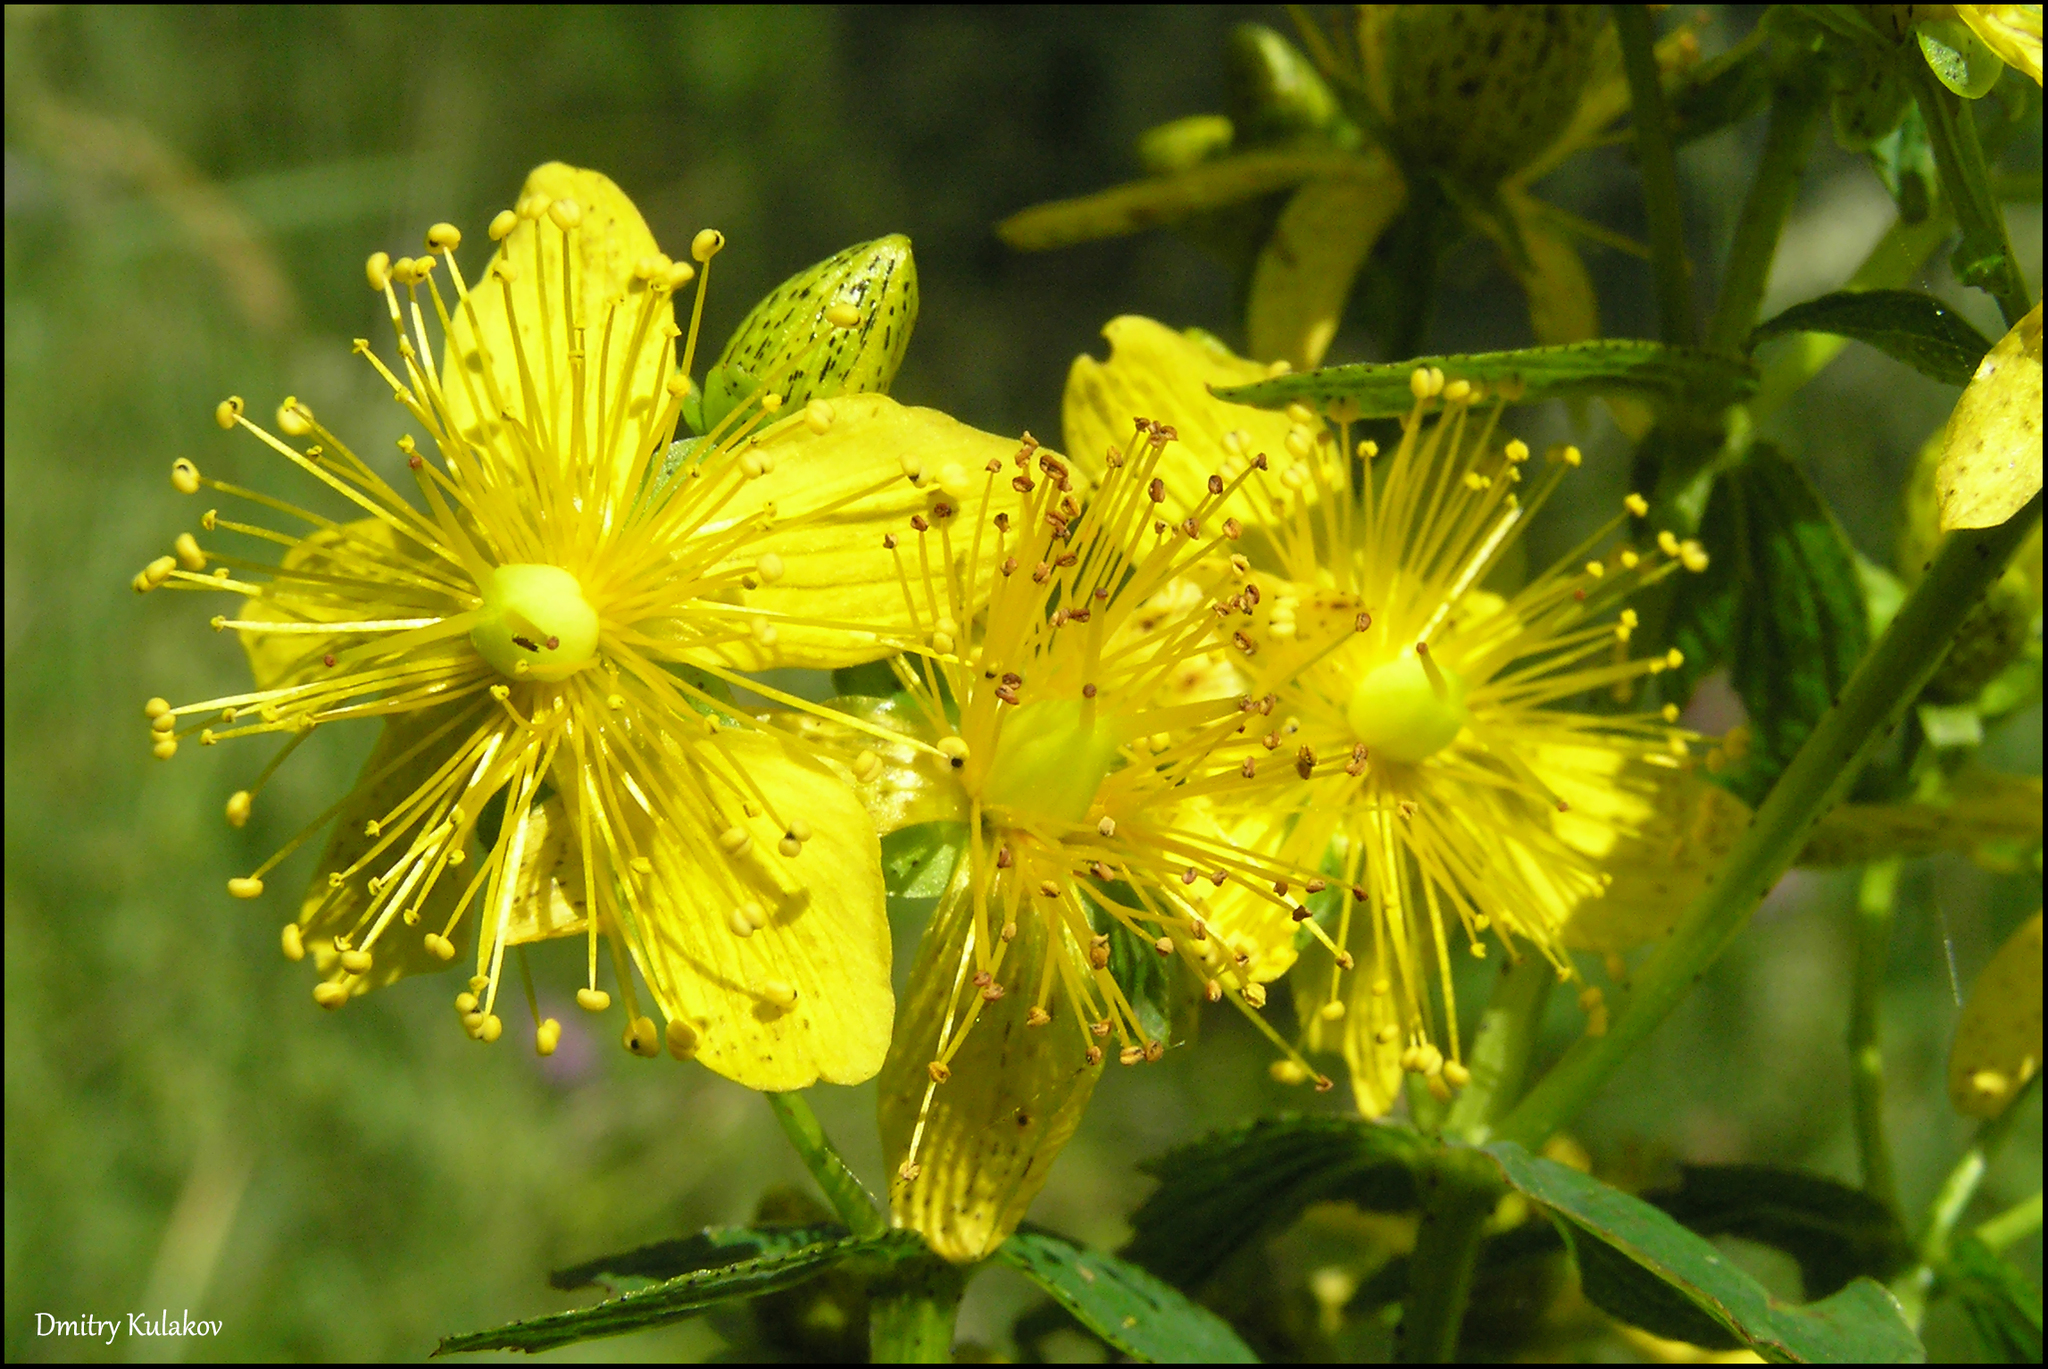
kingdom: Plantae
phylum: Tracheophyta
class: Magnoliopsida
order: Malpighiales
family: Hypericaceae
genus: Hypericum
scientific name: Hypericum maculatum
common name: Imperforate st. john's-wort
